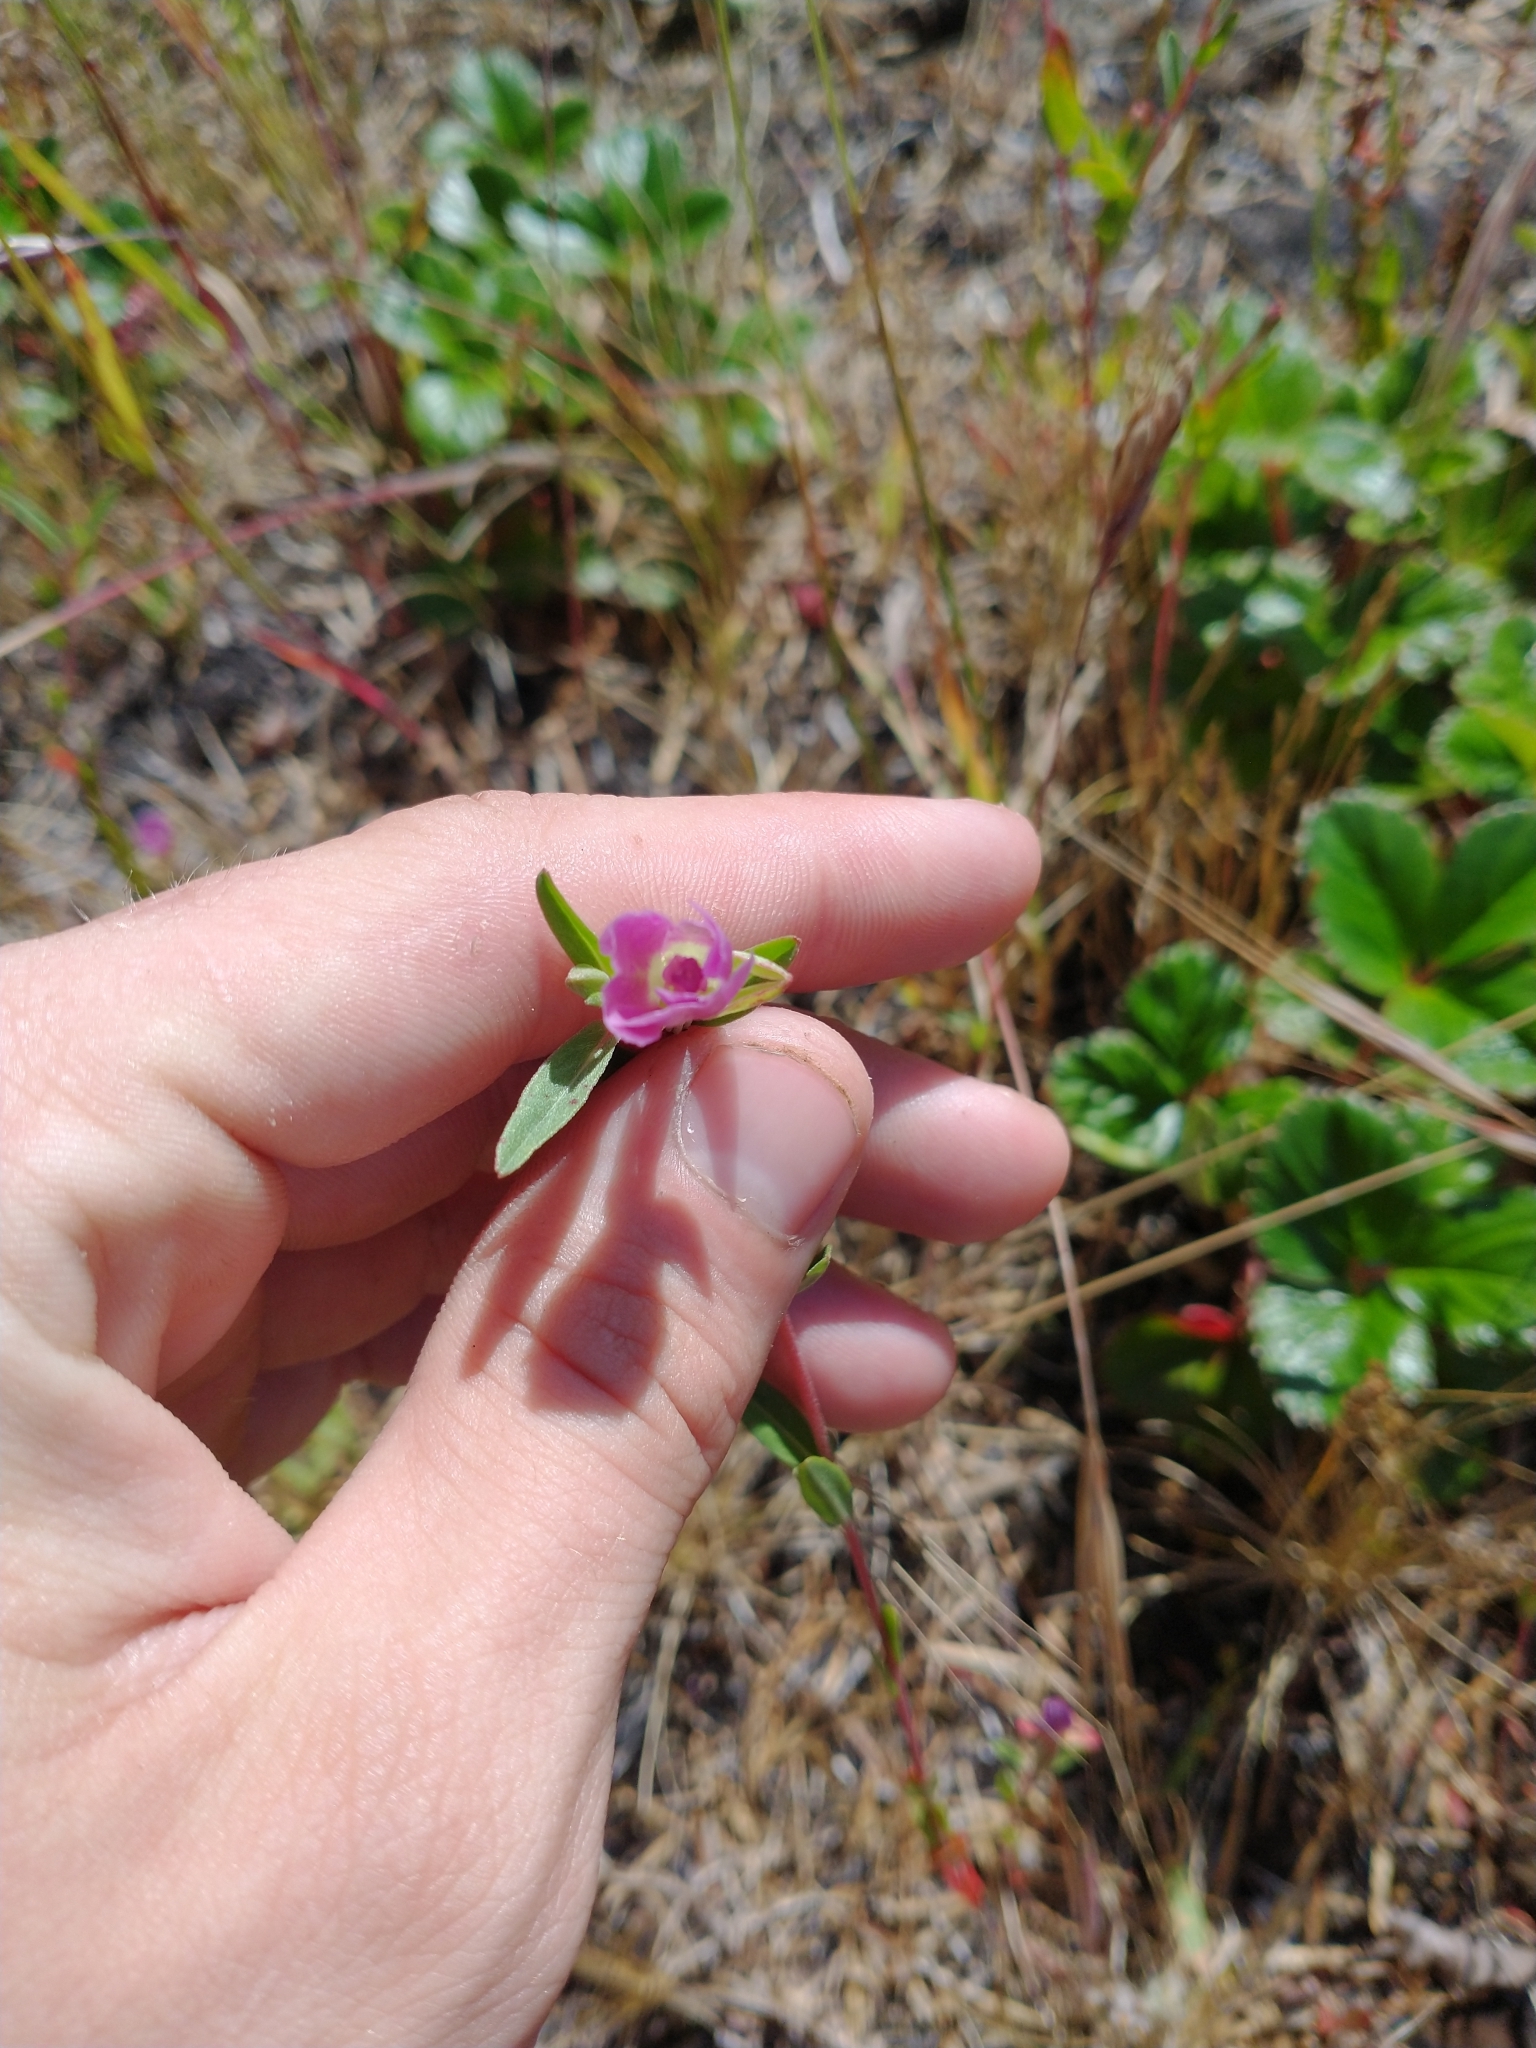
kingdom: Plantae
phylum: Tracheophyta
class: Magnoliopsida
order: Myrtales
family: Onagraceae
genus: Clarkia
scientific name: Clarkia davyi
